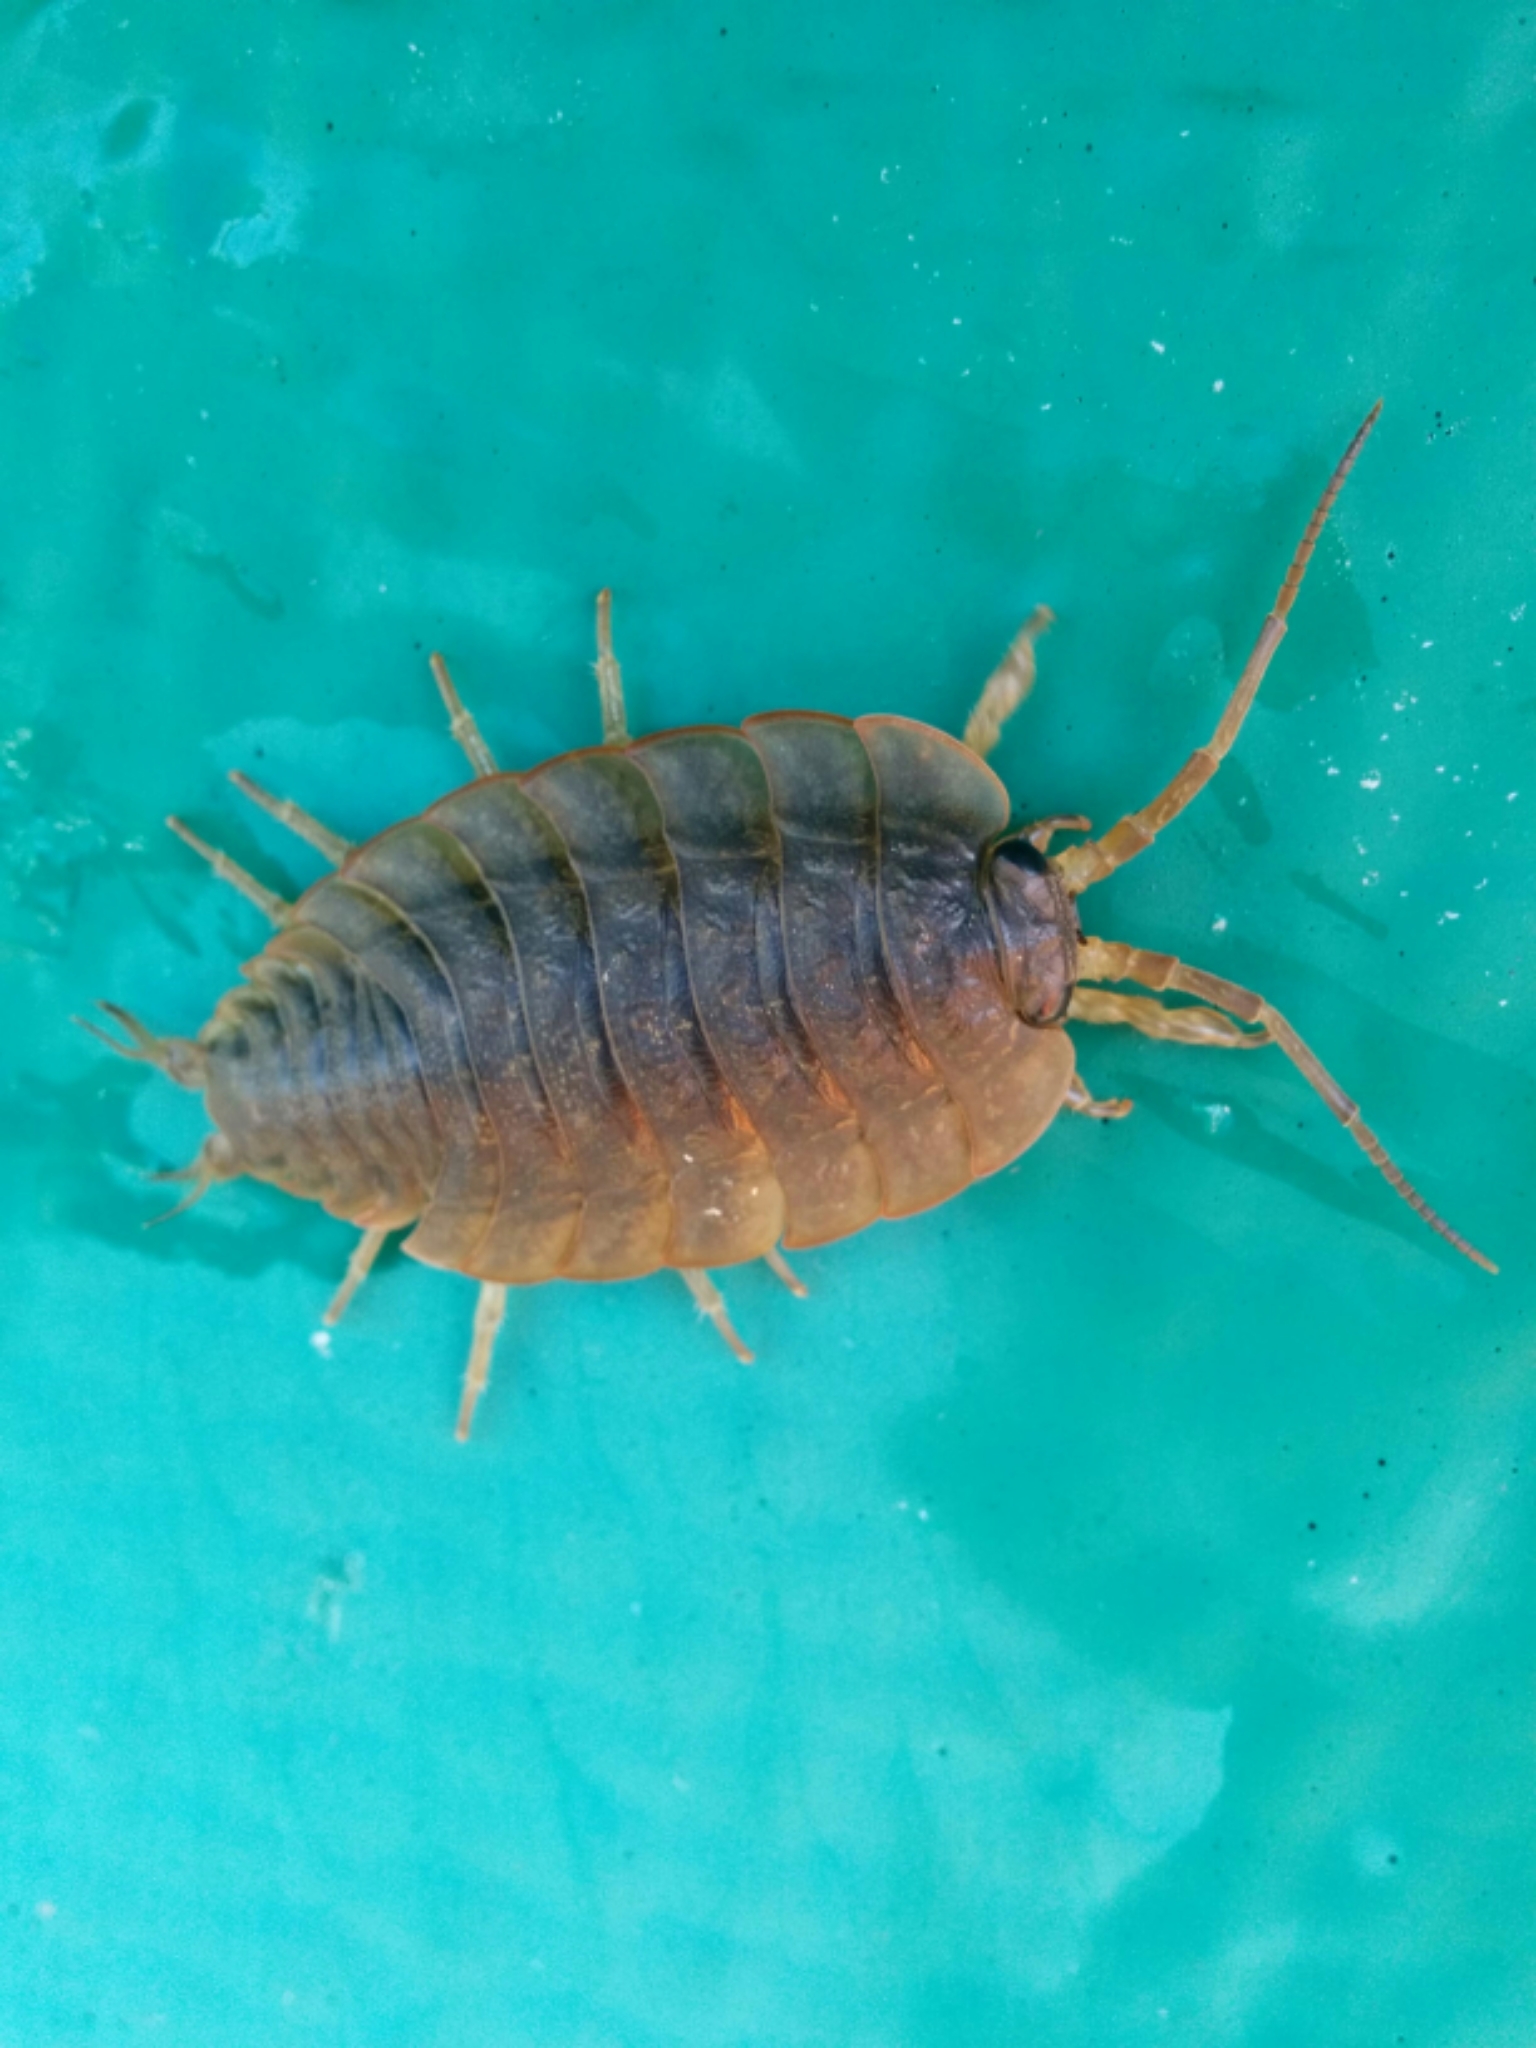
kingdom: Animalia
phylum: Arthropoda
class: Malacostraca
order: Isopoda
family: Ligiidae
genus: Ligia
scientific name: Ligia pallasii
